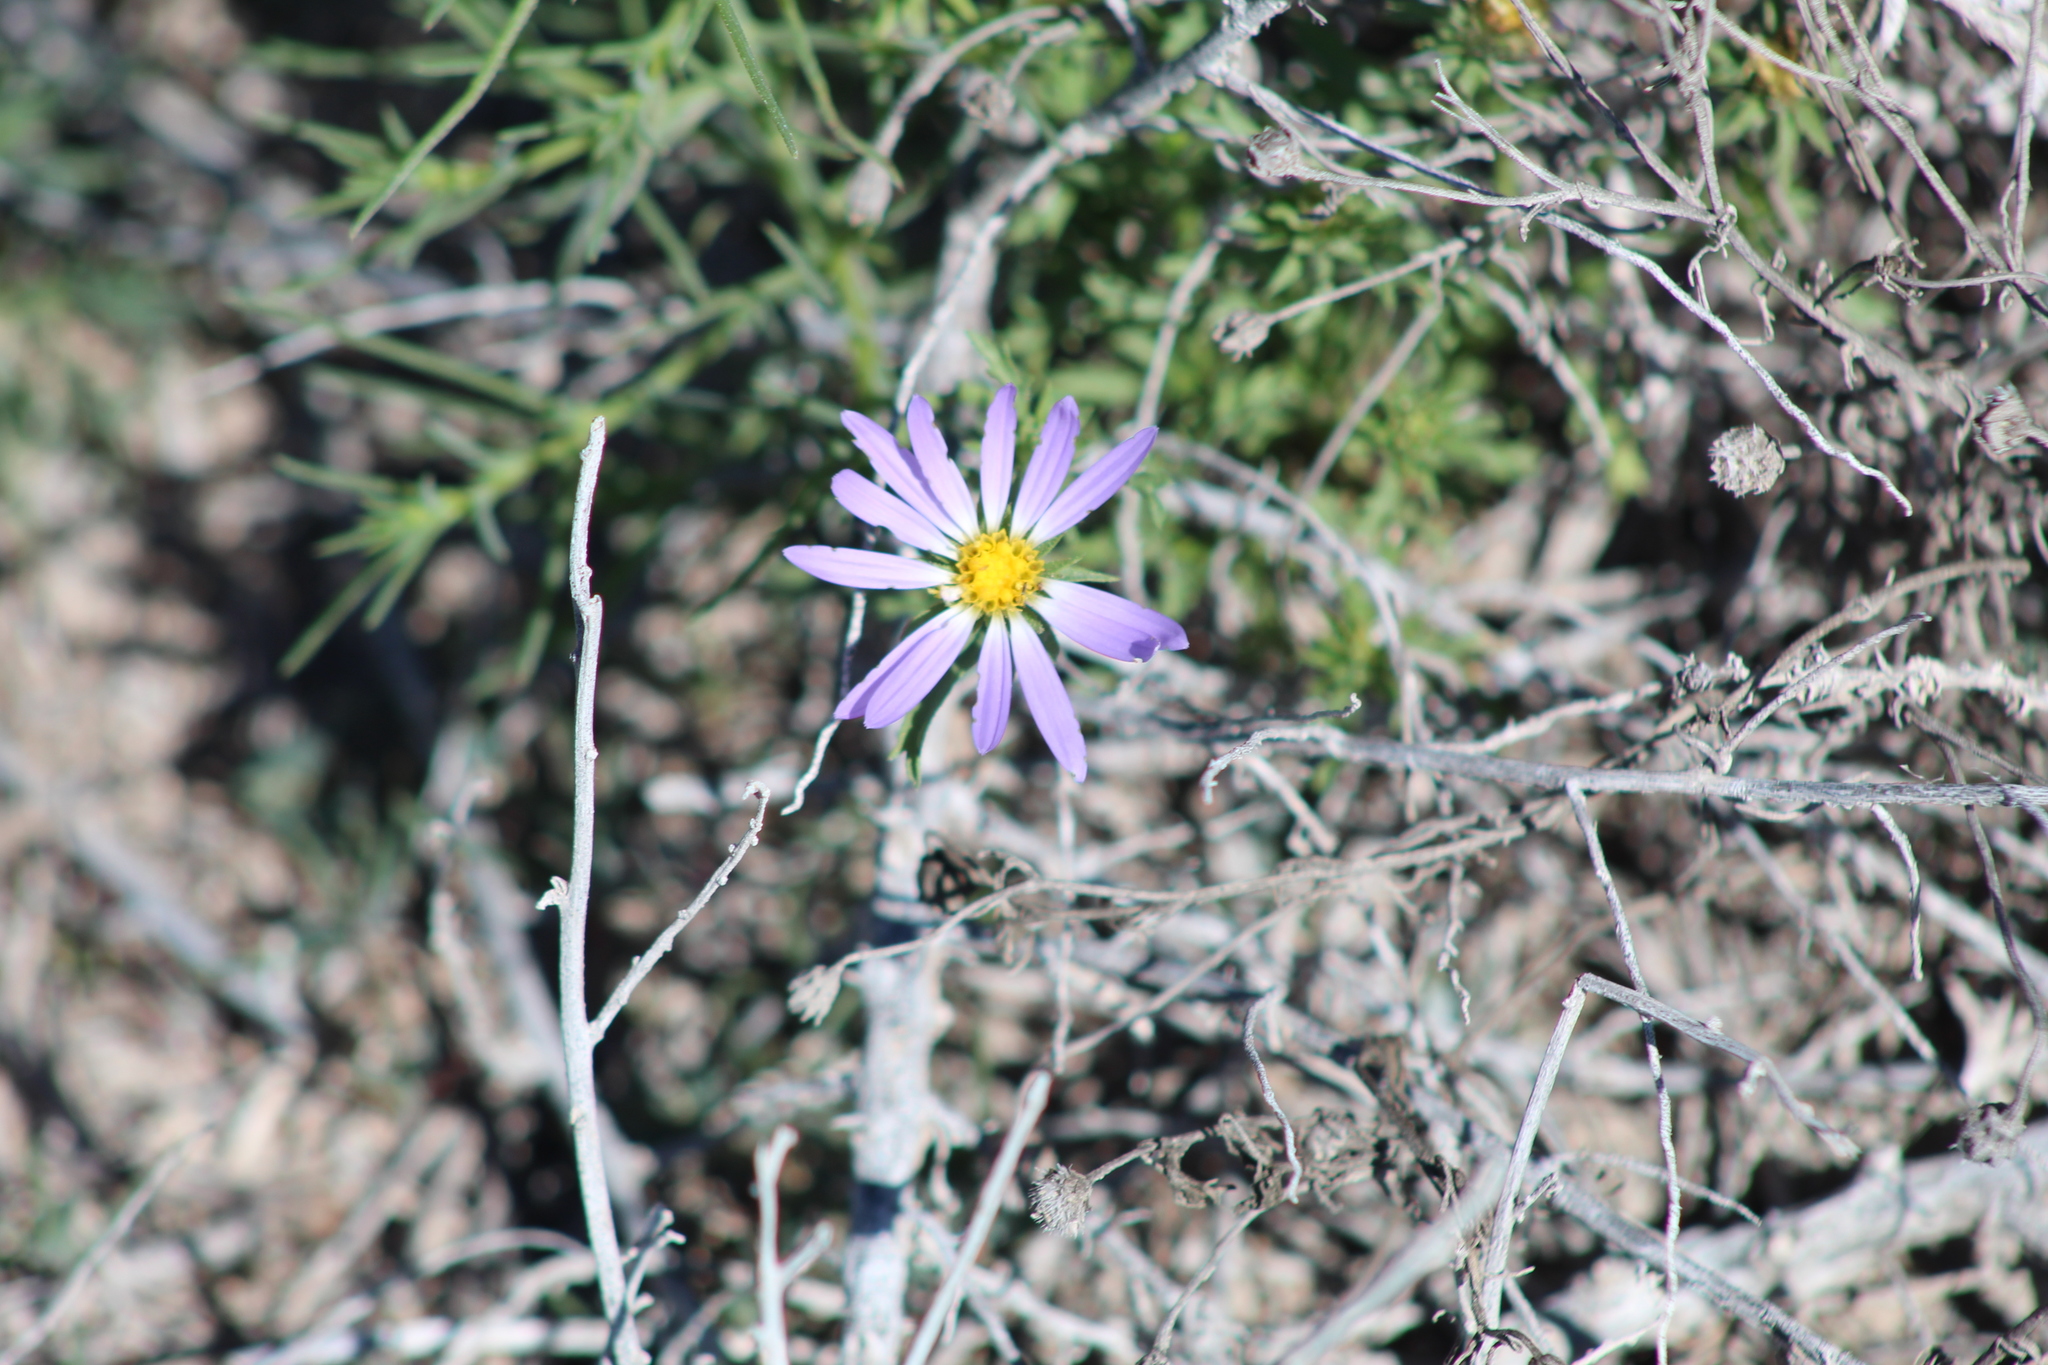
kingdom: Plantae
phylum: Tracheophyta
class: Magnoliopsida
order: Asterales
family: Asteraceae
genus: Machaeranthera
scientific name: Machaeranthera tanacetifolia
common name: Tansy-aster
